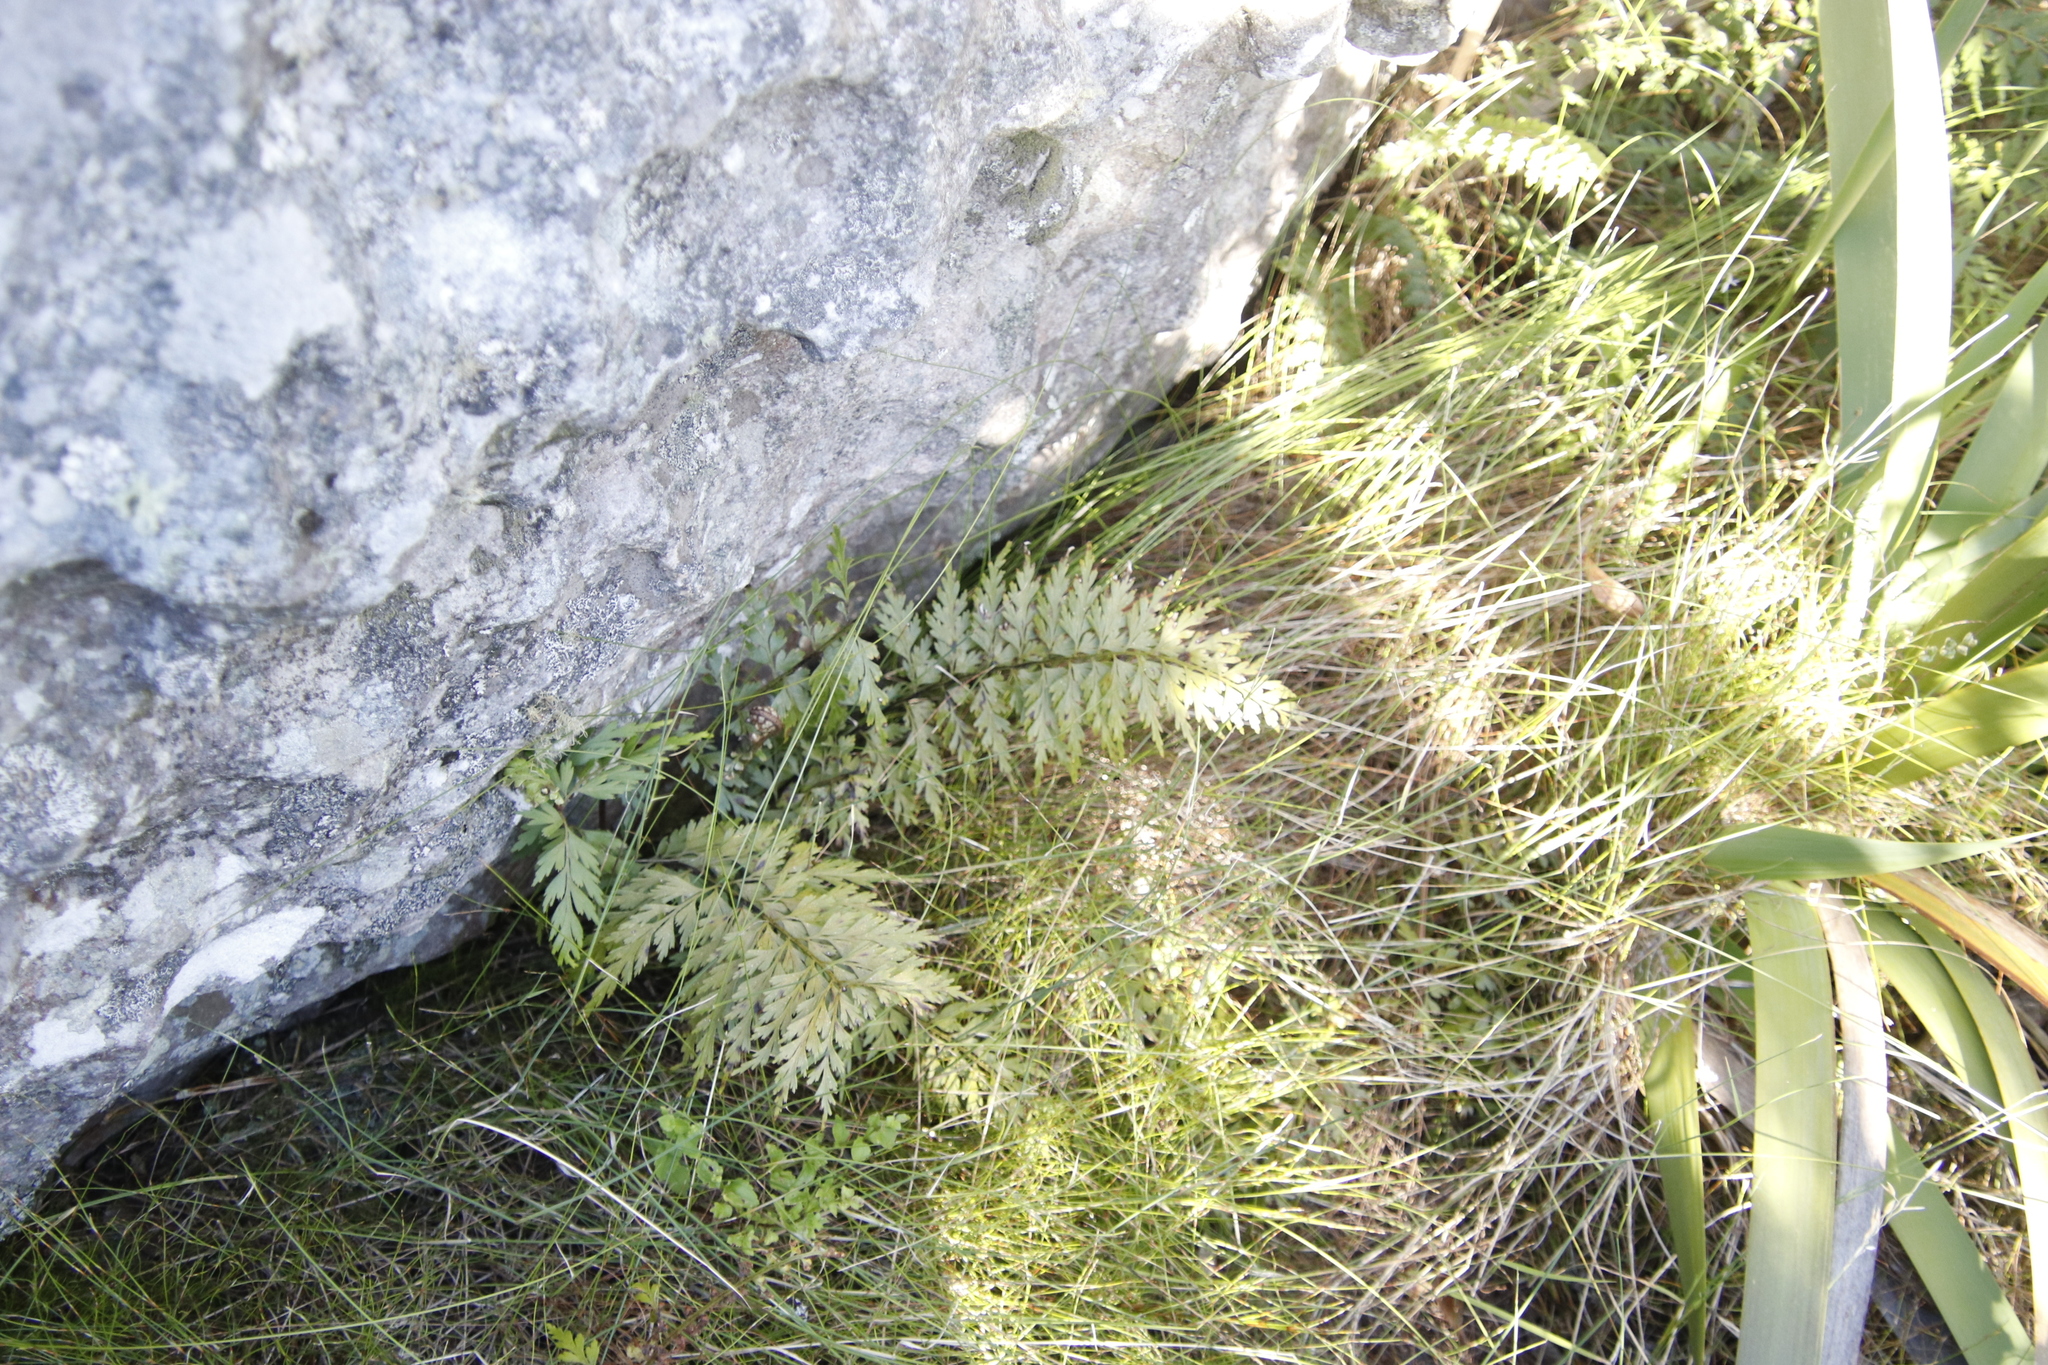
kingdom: Plantae
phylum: Tracheophyta
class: Polypodiopsida
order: Polypodiales
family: Aspleniaceae
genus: Asplenium
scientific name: Asplenium aethiopicum
